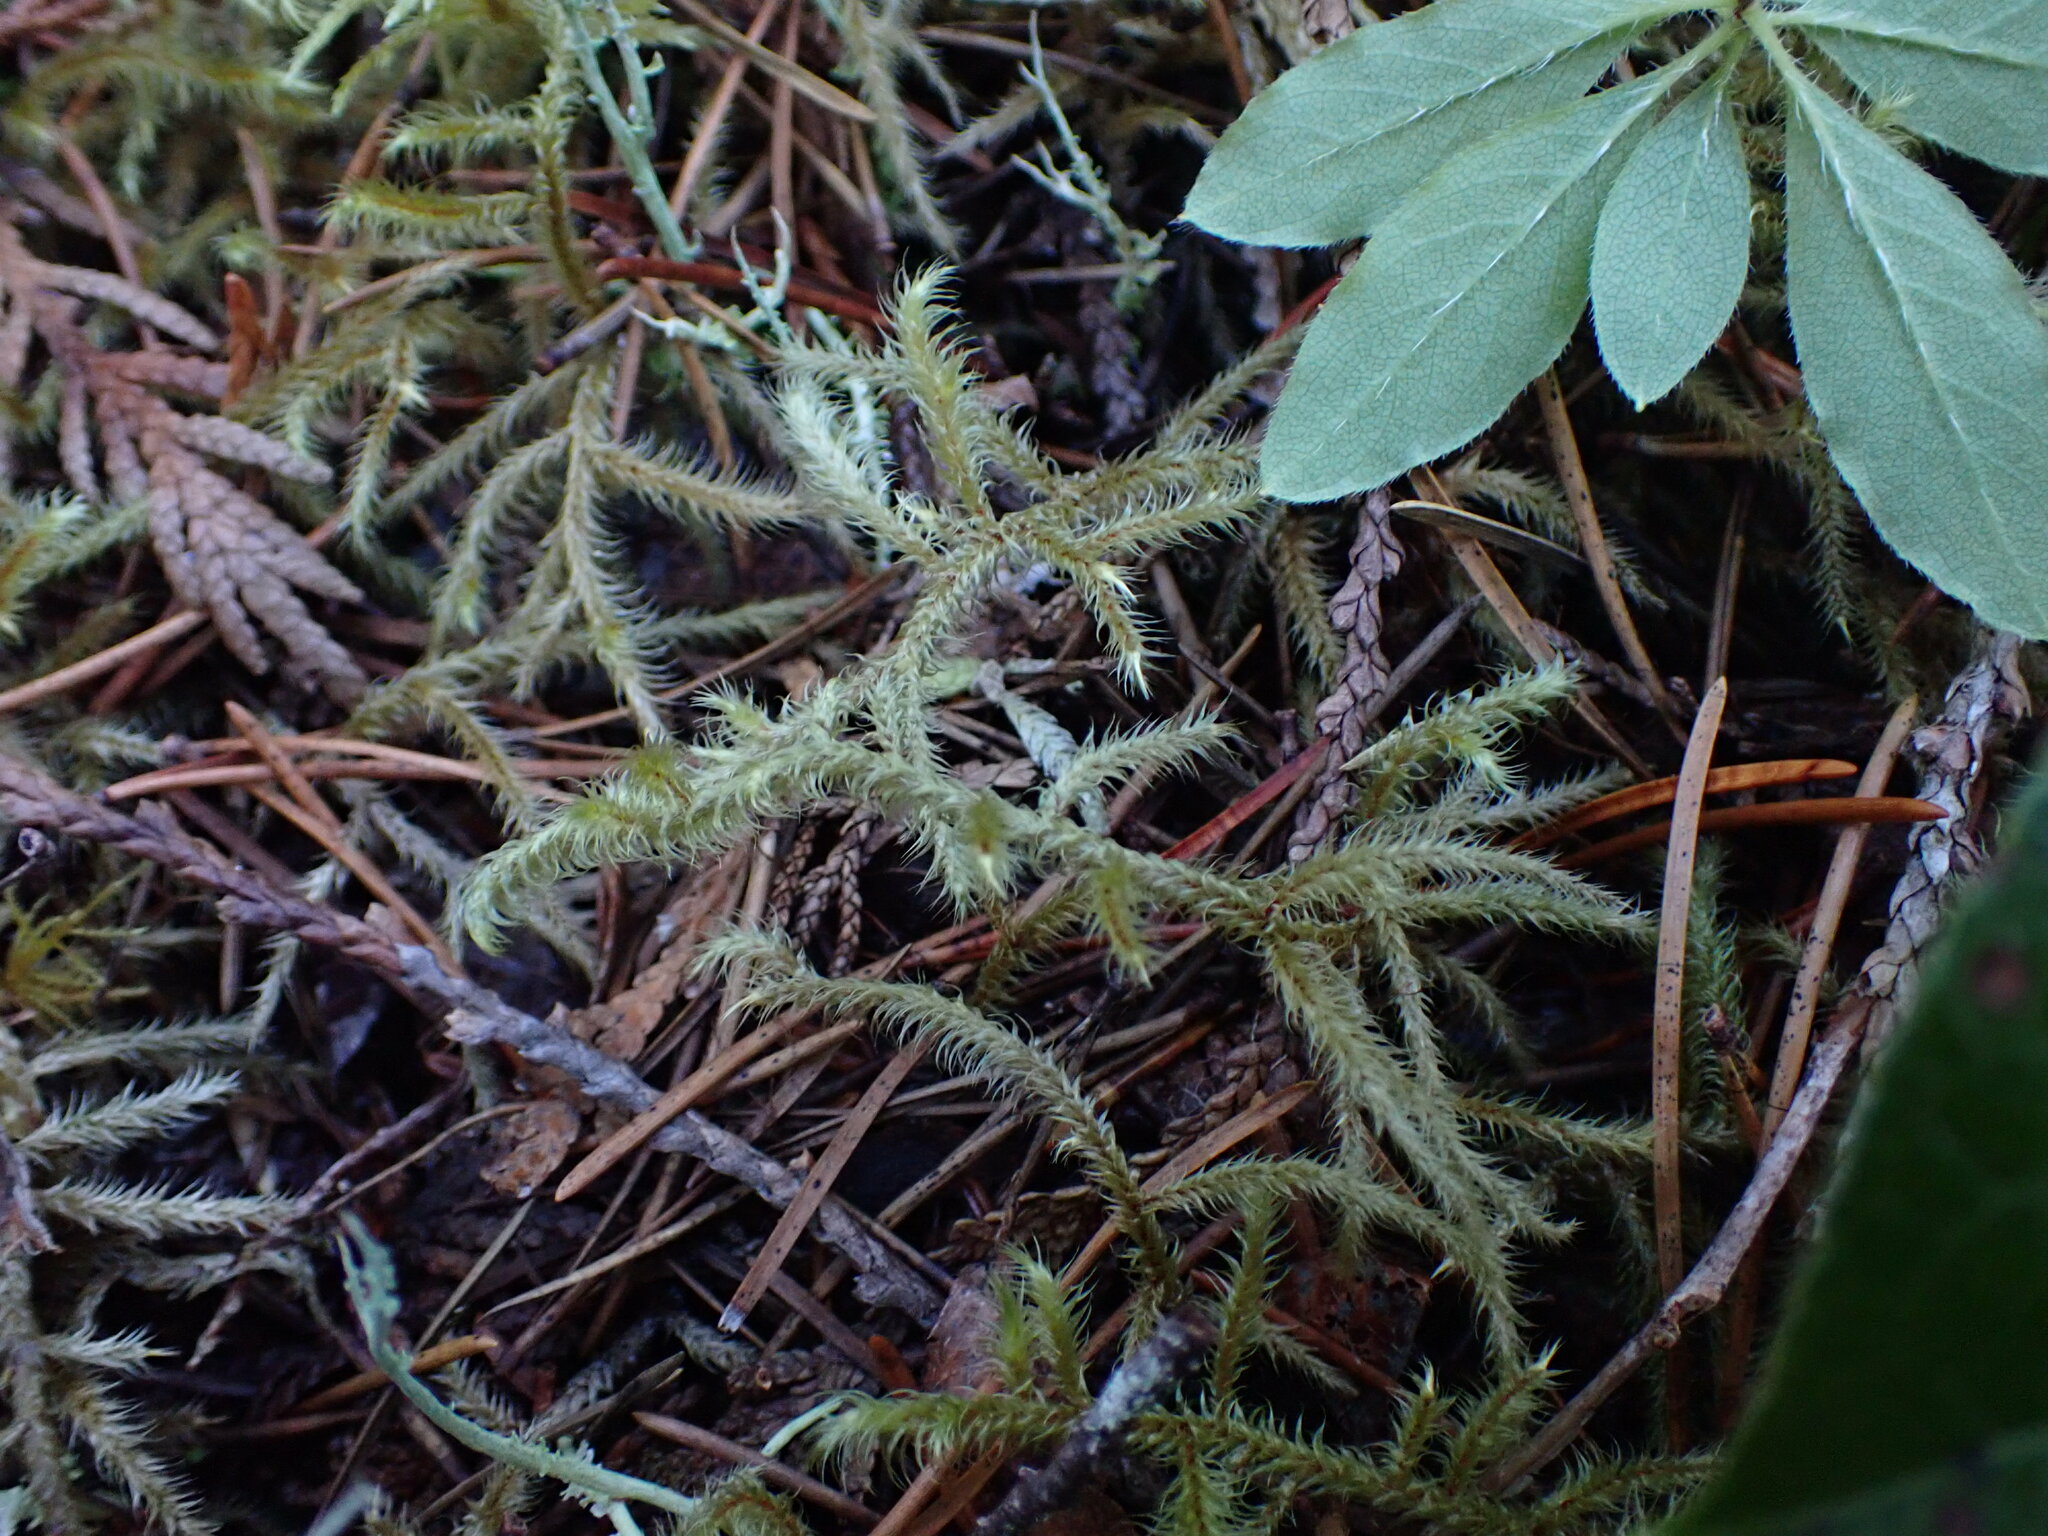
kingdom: Plantae
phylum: Bryophyta
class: Bryopsida
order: Hypnales
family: Hylocomiaceae
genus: Rhytidiadelphus
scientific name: Rhytidiadelphus loreus
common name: Lanky moss
